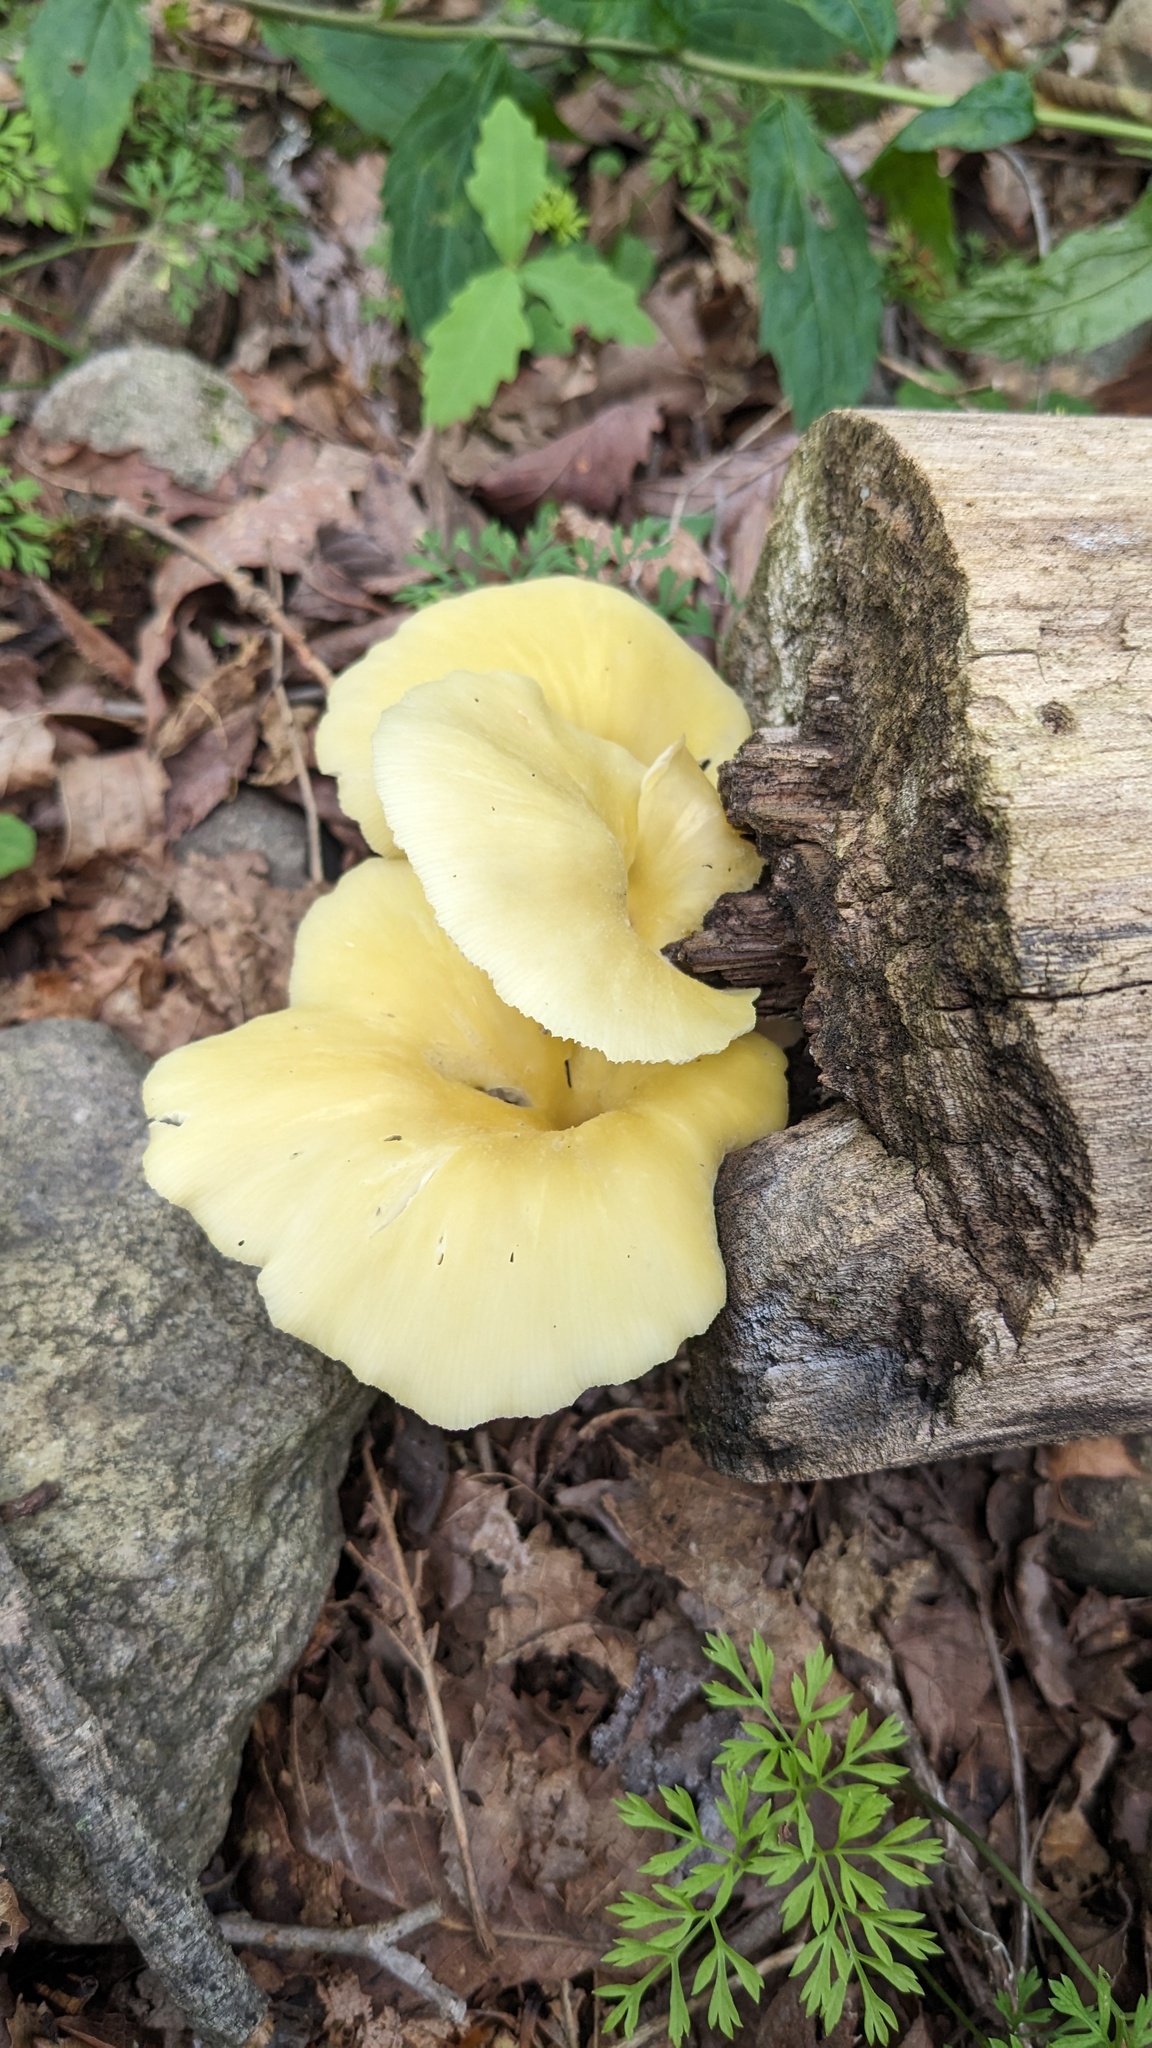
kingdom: Fungi
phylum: Basidiomycota
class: Agaricomycetes
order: Agaricales
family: Pleurotaceae
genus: Pleurotus
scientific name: Pleurotus citrinopileatus
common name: Golden oyster mushroom
